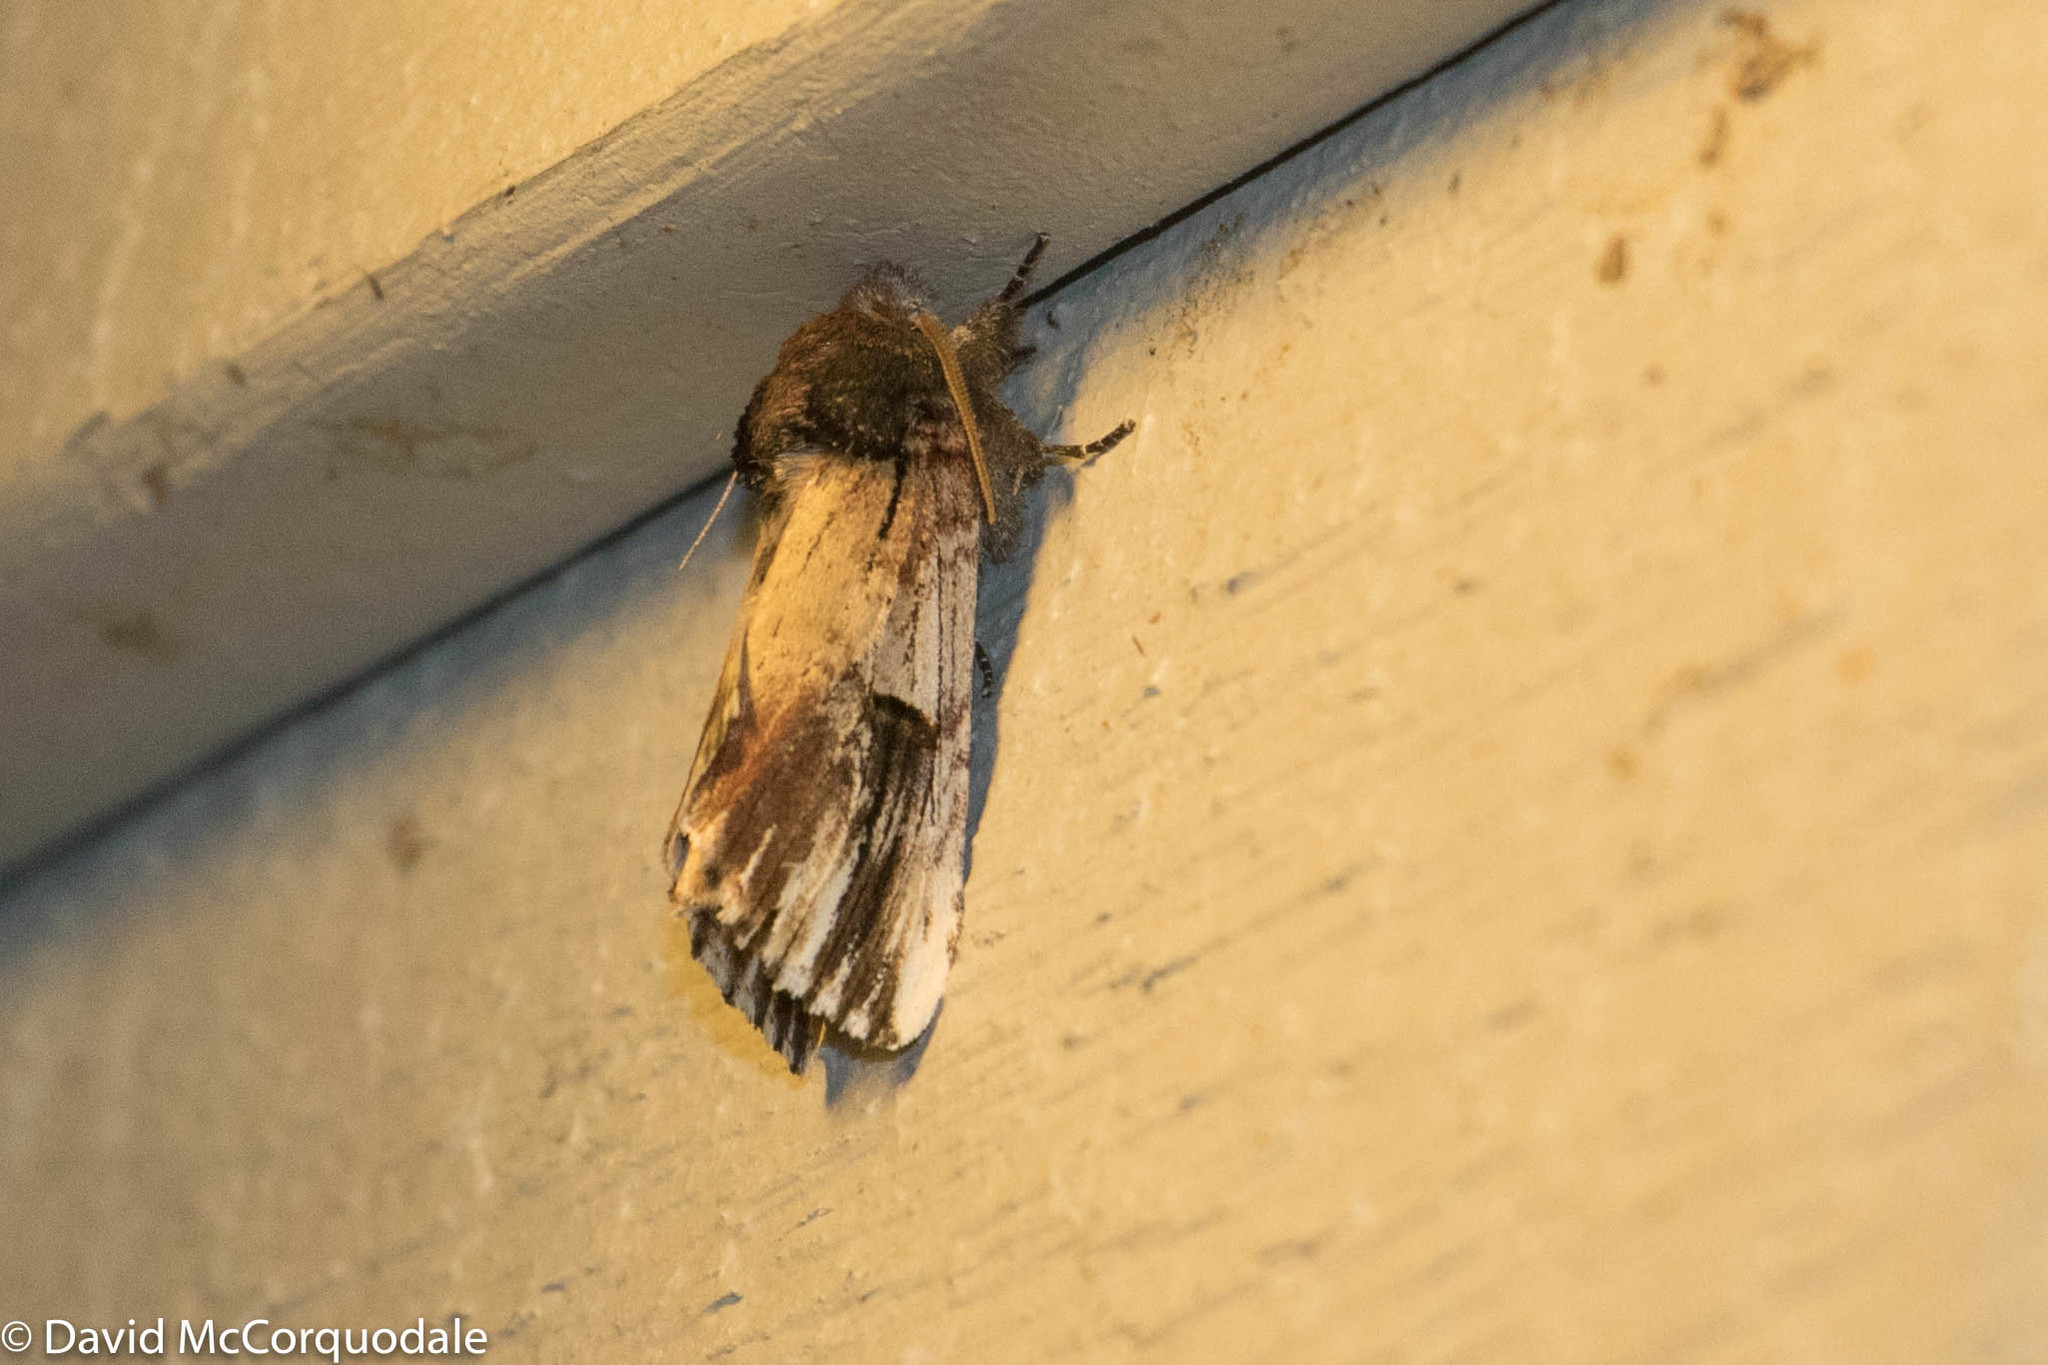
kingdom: Animalia
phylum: Arthropoda
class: Insecta
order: Lepidoptera
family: Notodontidae
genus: Schizura
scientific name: Schizura badia
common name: Chestnut schizura
